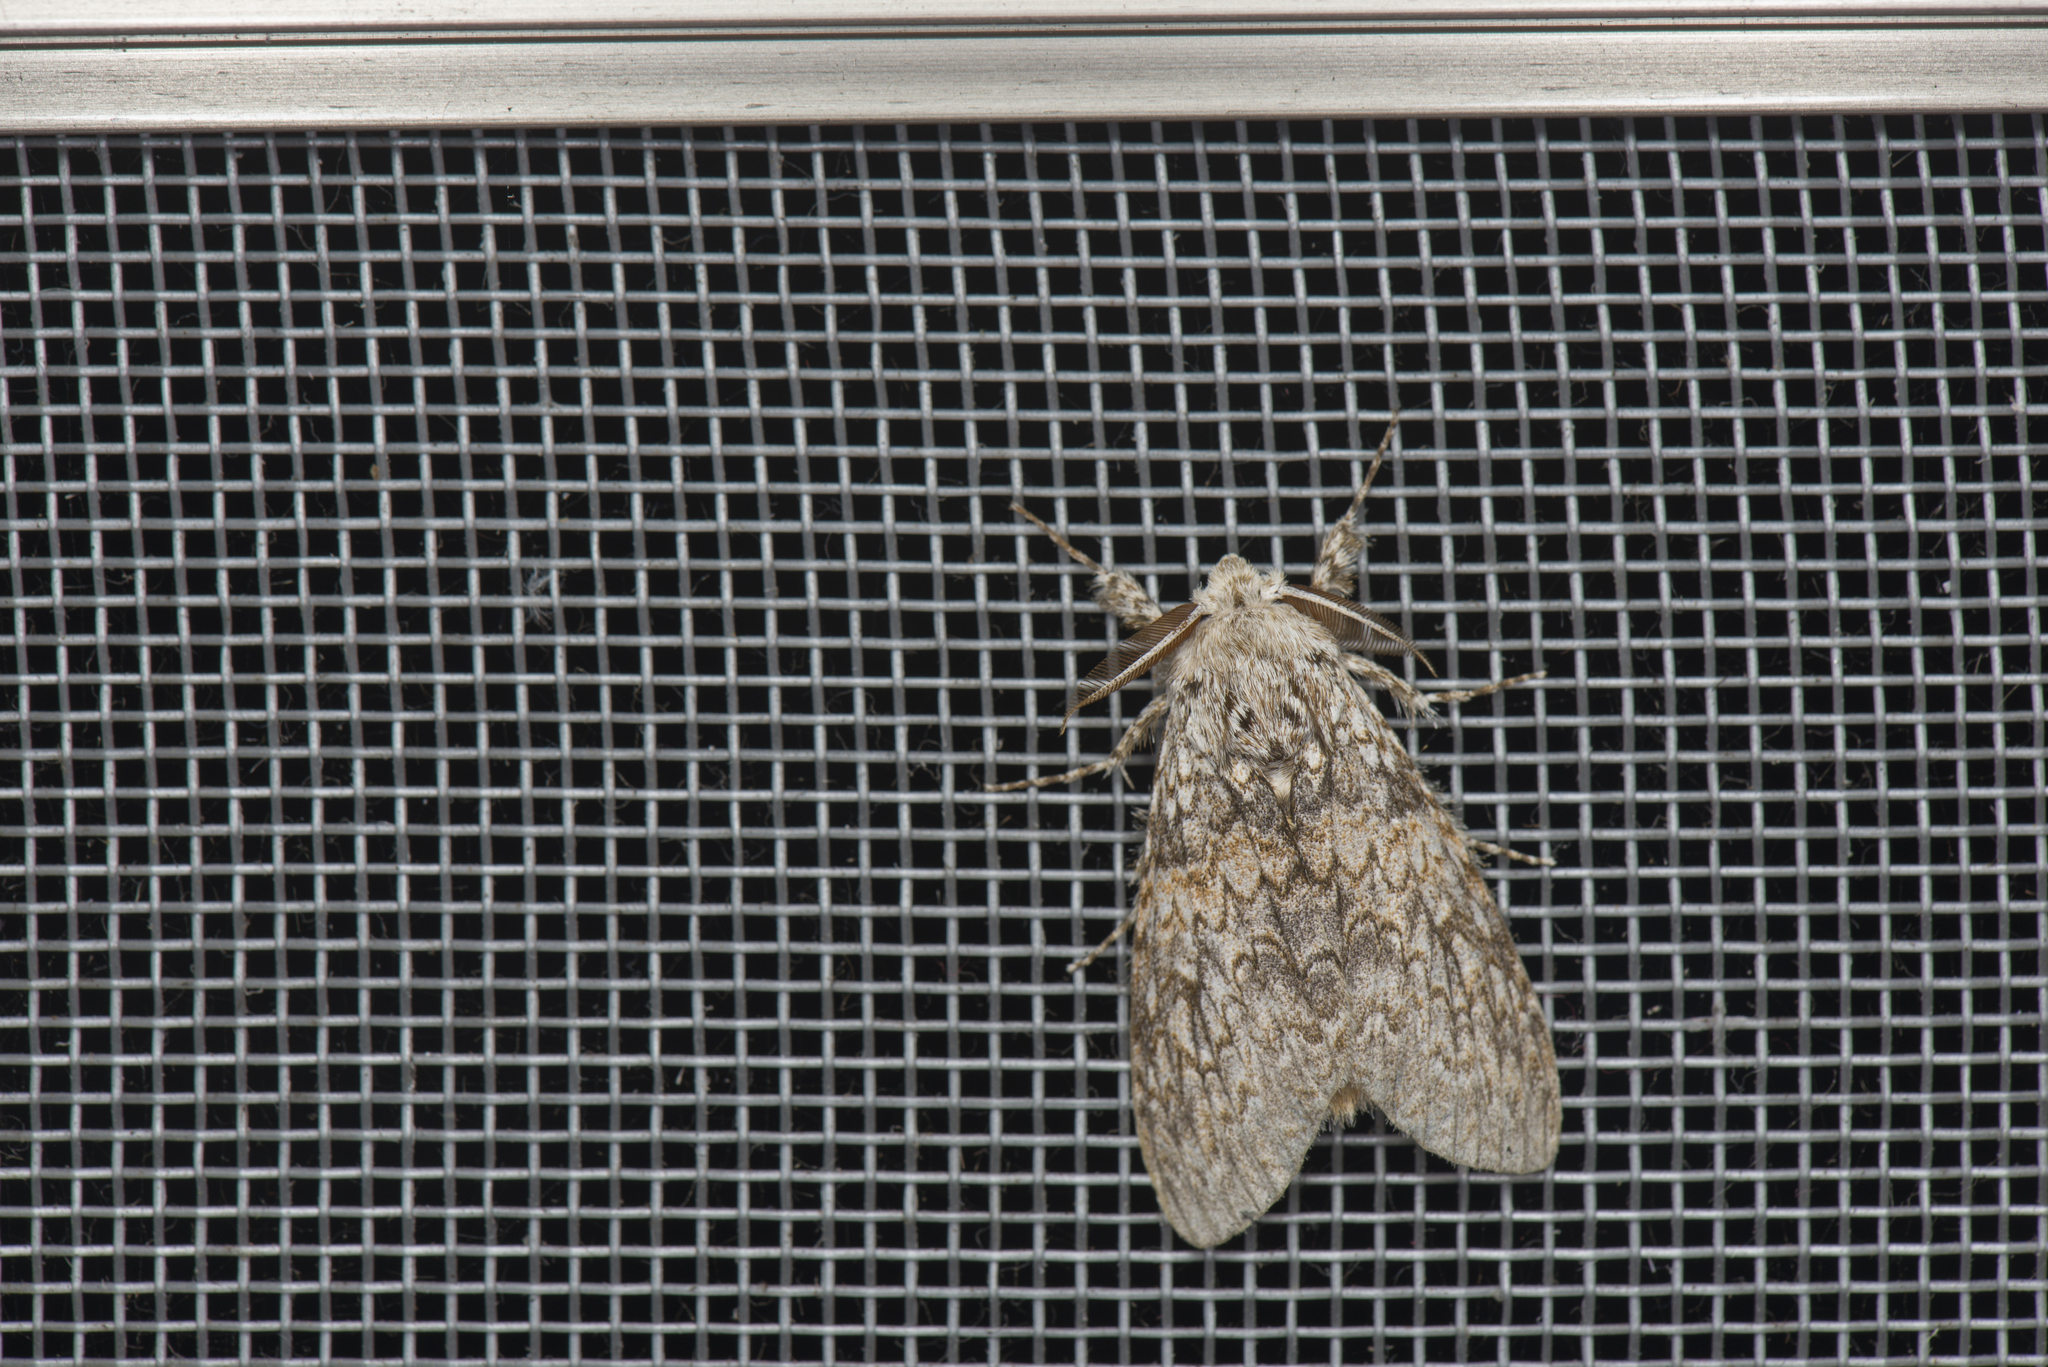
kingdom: Animalia
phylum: Arthropoda
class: Insecta
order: Lepidoptera
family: Erebidae
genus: Calliteara
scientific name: Calliteara taiwana
